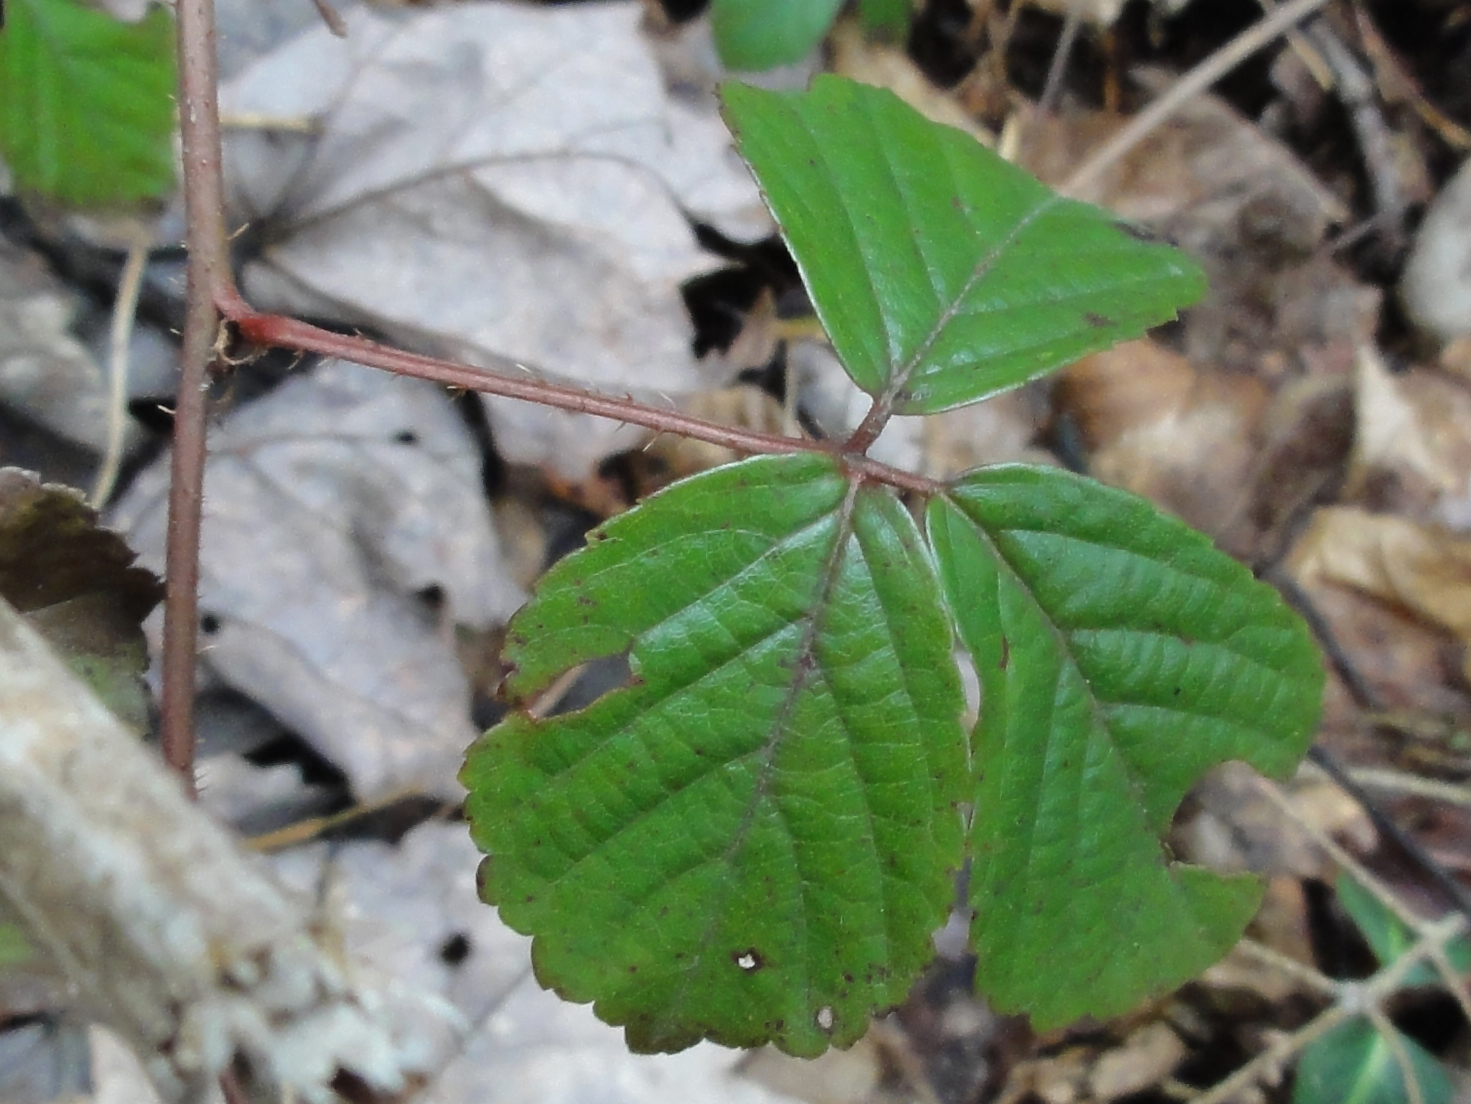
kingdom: Plantae
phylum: Tracheophyta
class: Magnoliopsida
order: Rosales
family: Rosaceae
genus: Rubus
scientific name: Rubus hispidus
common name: Running blackberry
